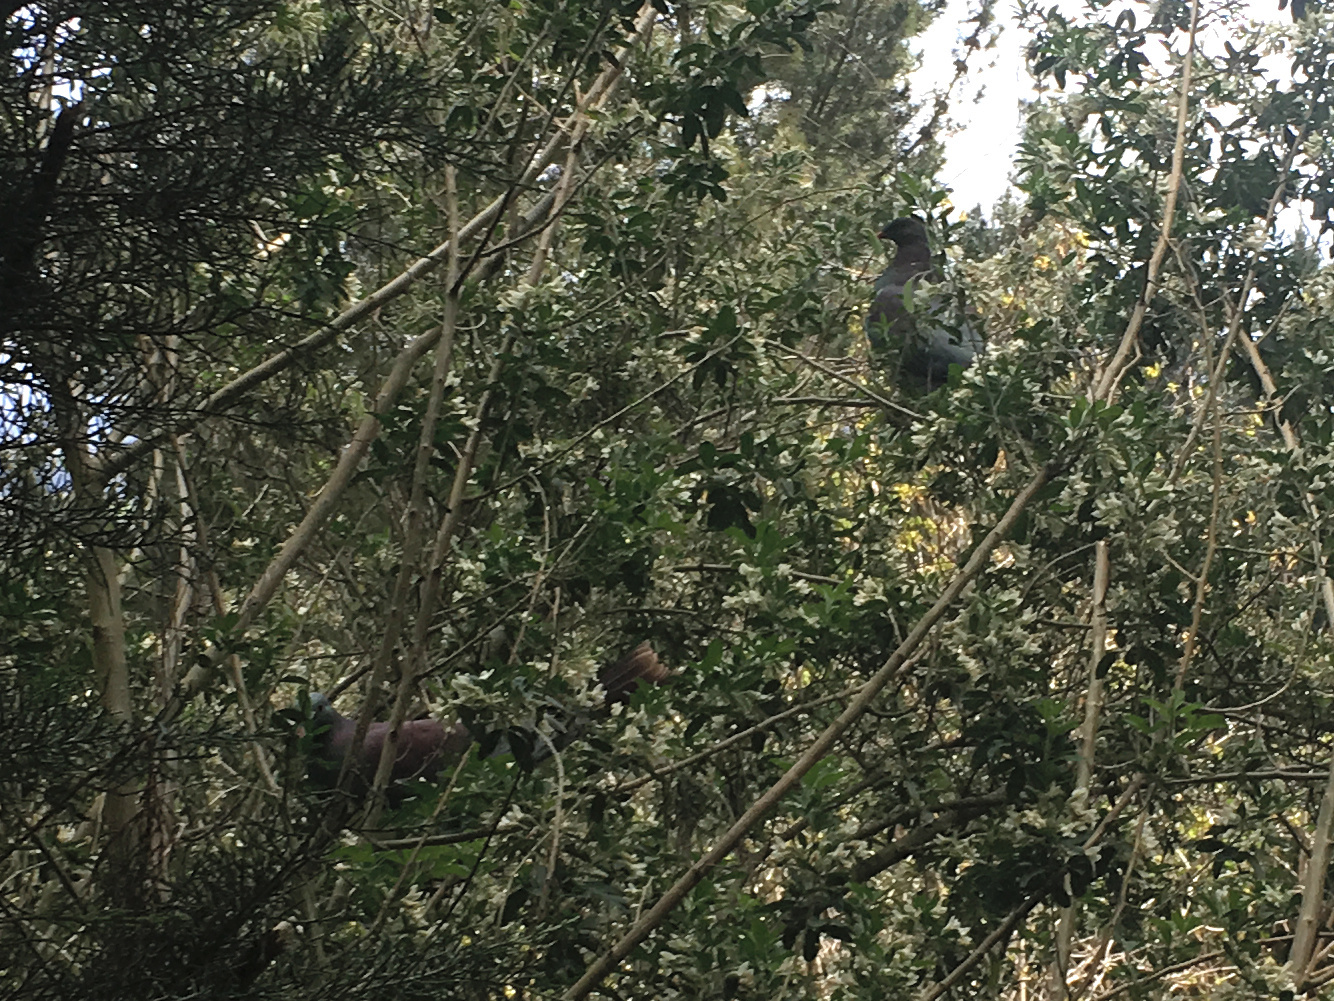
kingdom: Animalia
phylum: Chordata
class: Aves
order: Columbiformes
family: Columbidae
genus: Hemiphaga
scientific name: Hemiphaga novaeseelandiae
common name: New zealand pigeon
